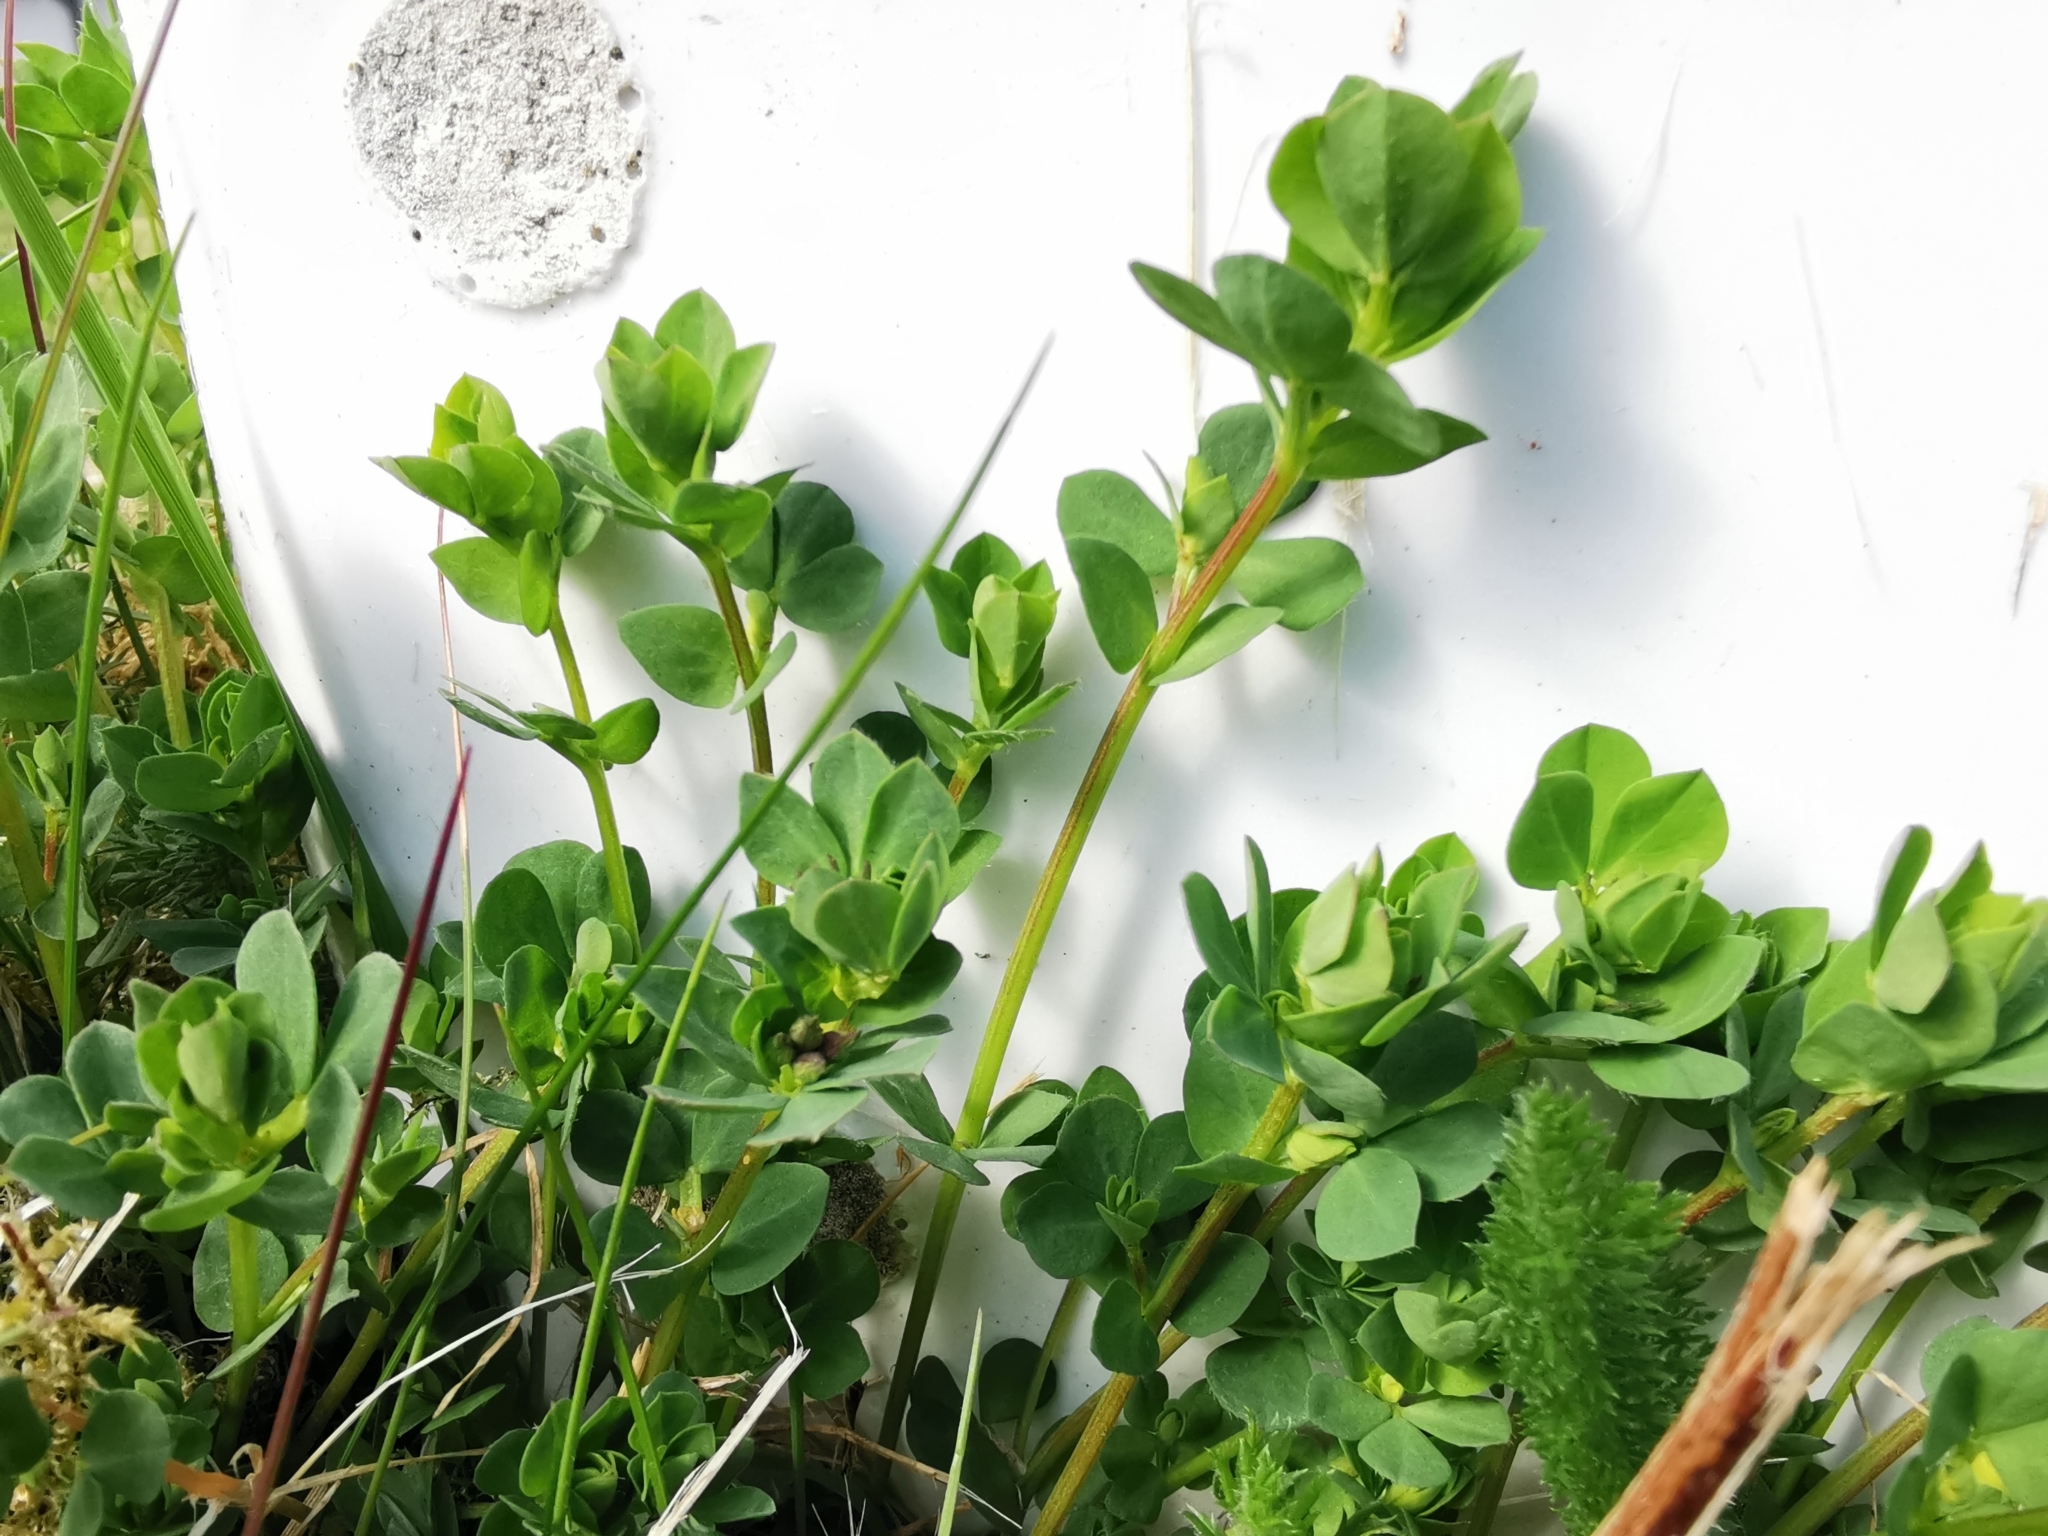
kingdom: Plantae
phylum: Tracheophyta
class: Magnoliopsida
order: Fabales
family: Fabaceae
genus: Lotus
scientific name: Lotus corniculatus
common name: Common bird's-foot-trefoil
